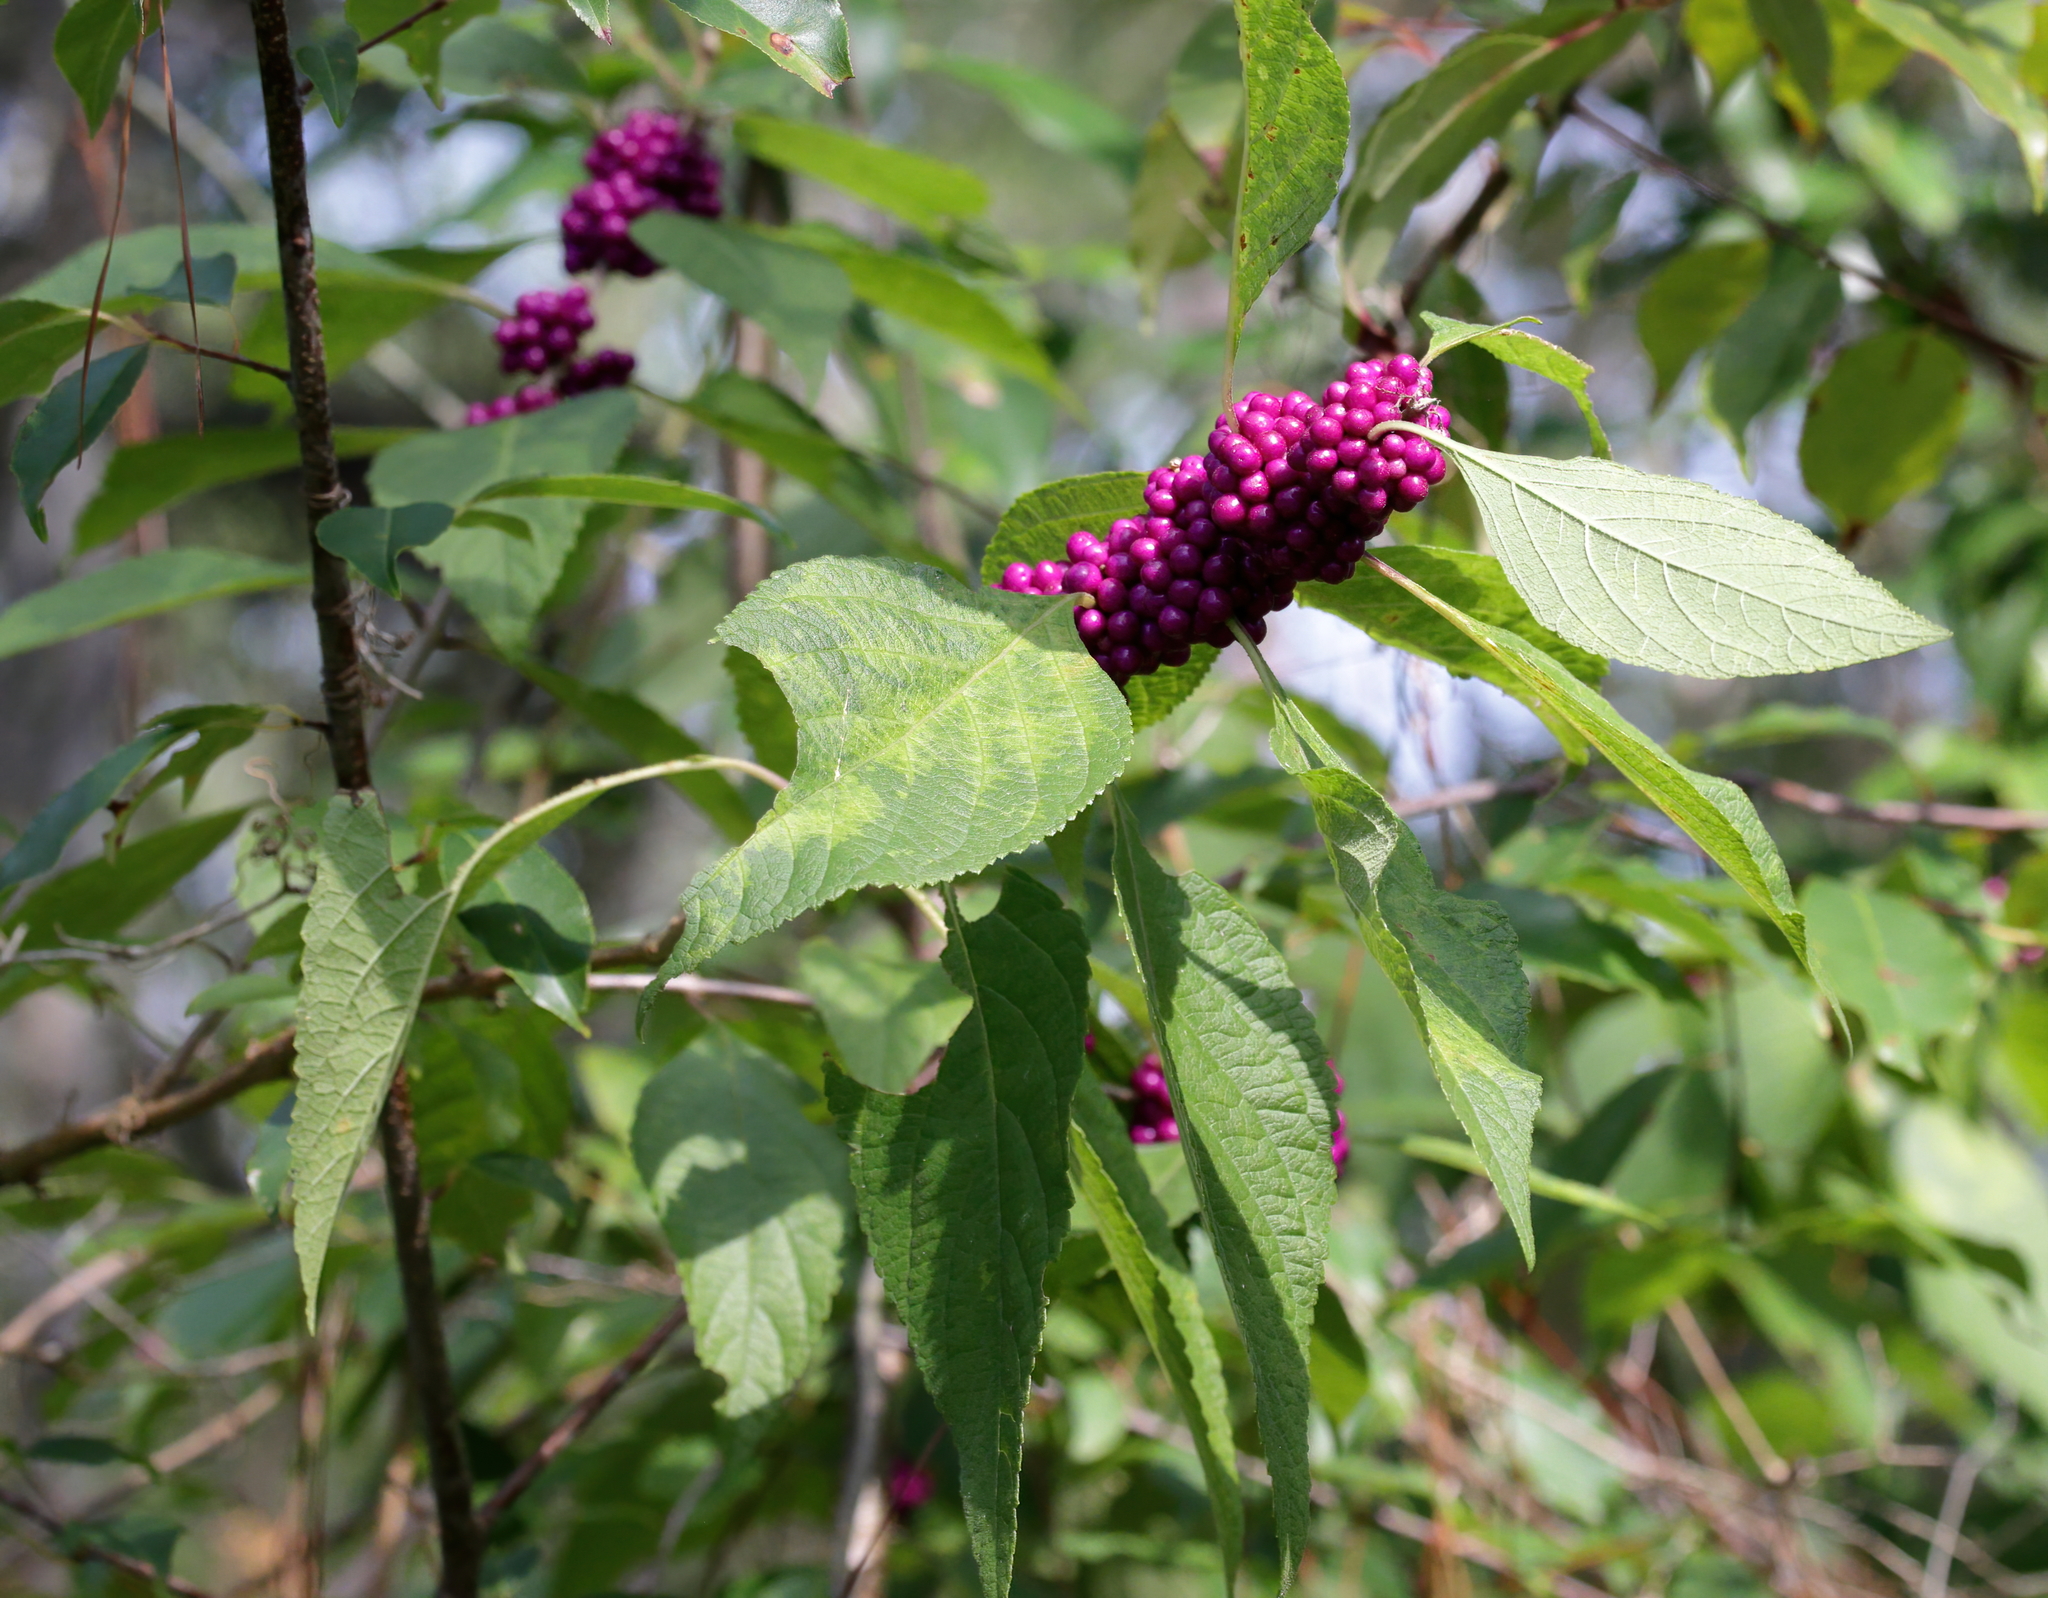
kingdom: Plantae
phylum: Tracheophyta
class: Magnoliopsida
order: Lamiales
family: Lamiaceae
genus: Callicarpa
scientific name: Callicarpa americana
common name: American beautyberry
